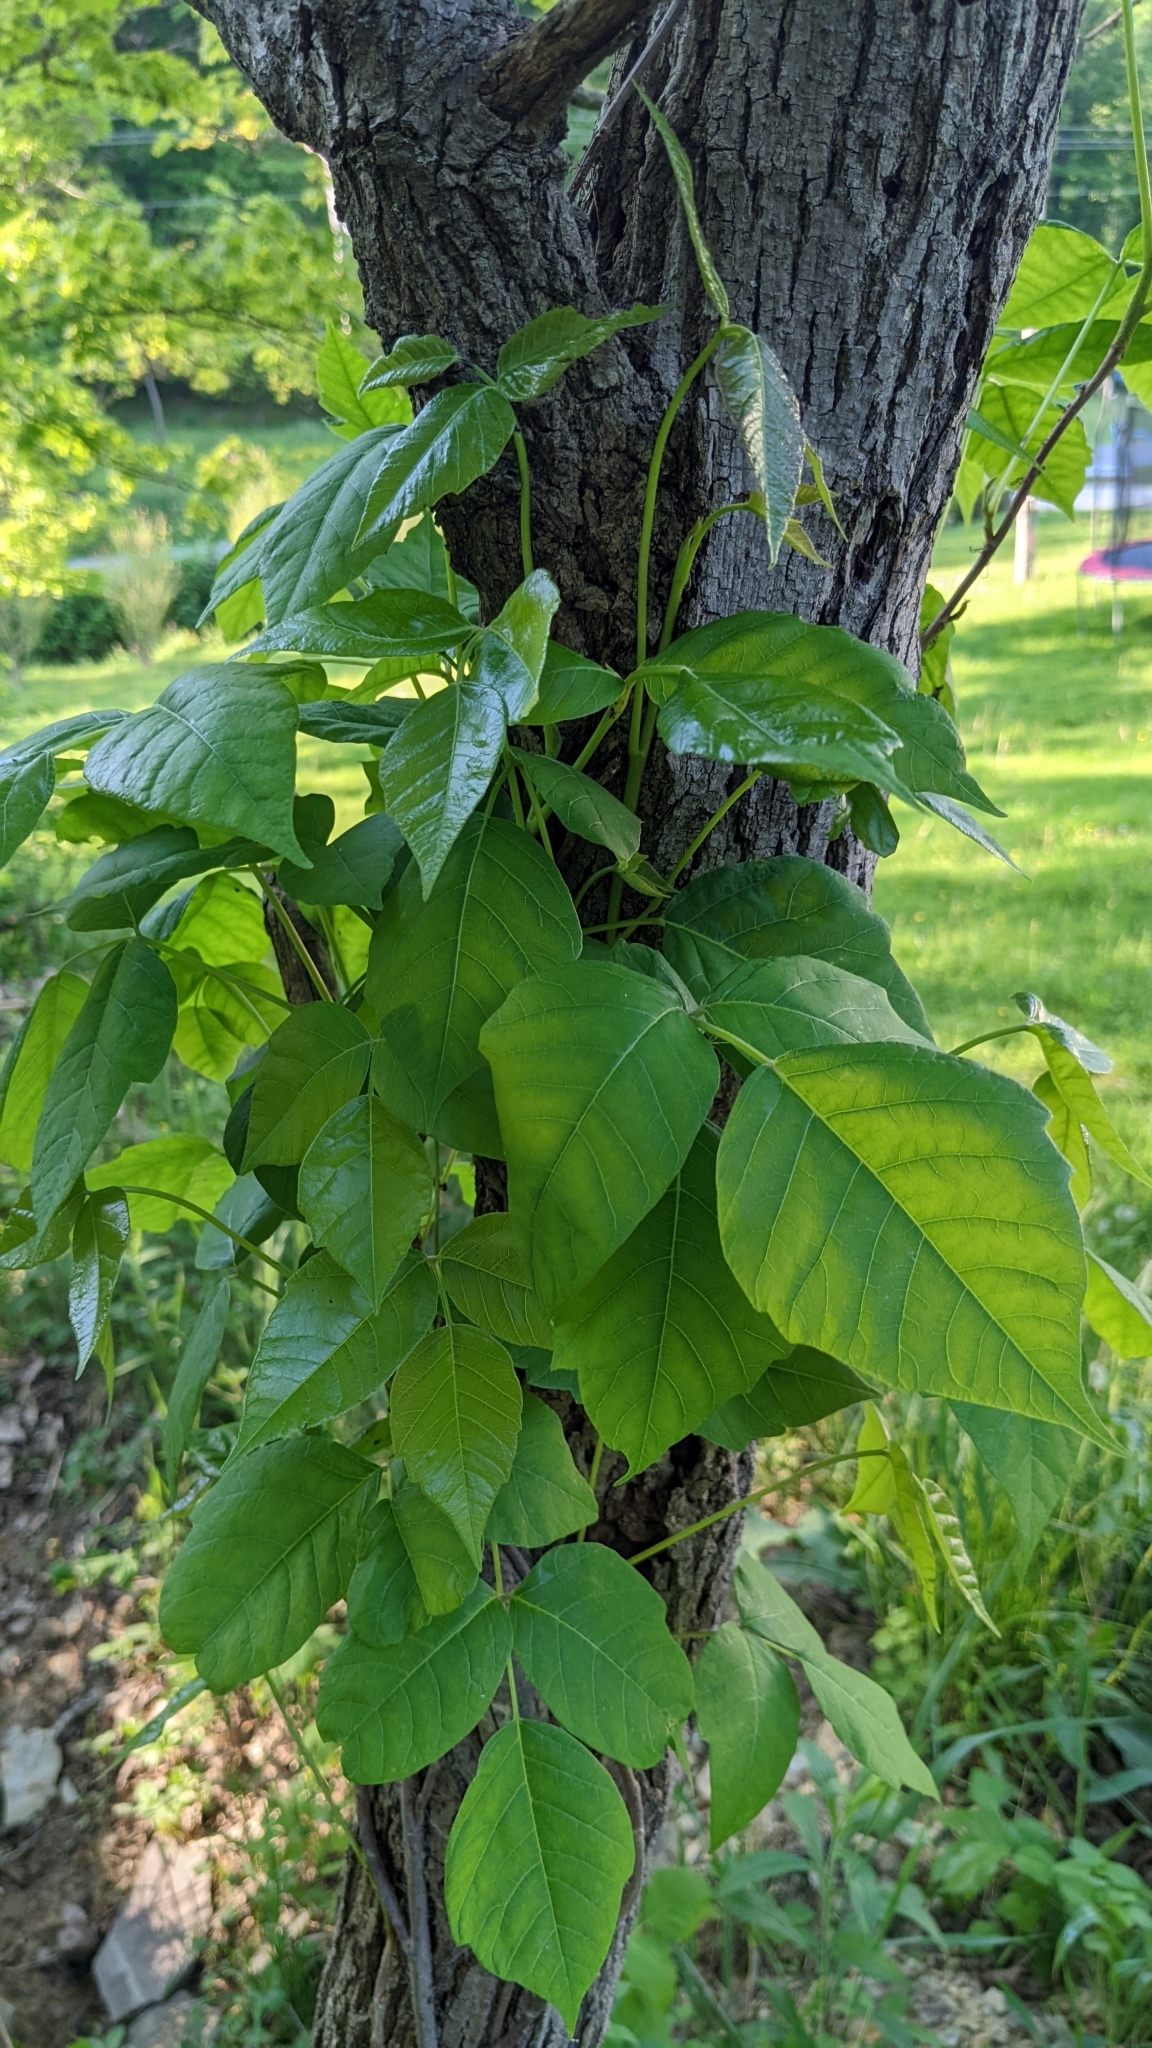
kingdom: Plantae
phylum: Tracheophyta
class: Magnoliopsida
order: Sapindales
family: Anacardiaceae
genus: Toxicodendron
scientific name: Toxicodendron radicans
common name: Poison ivy
